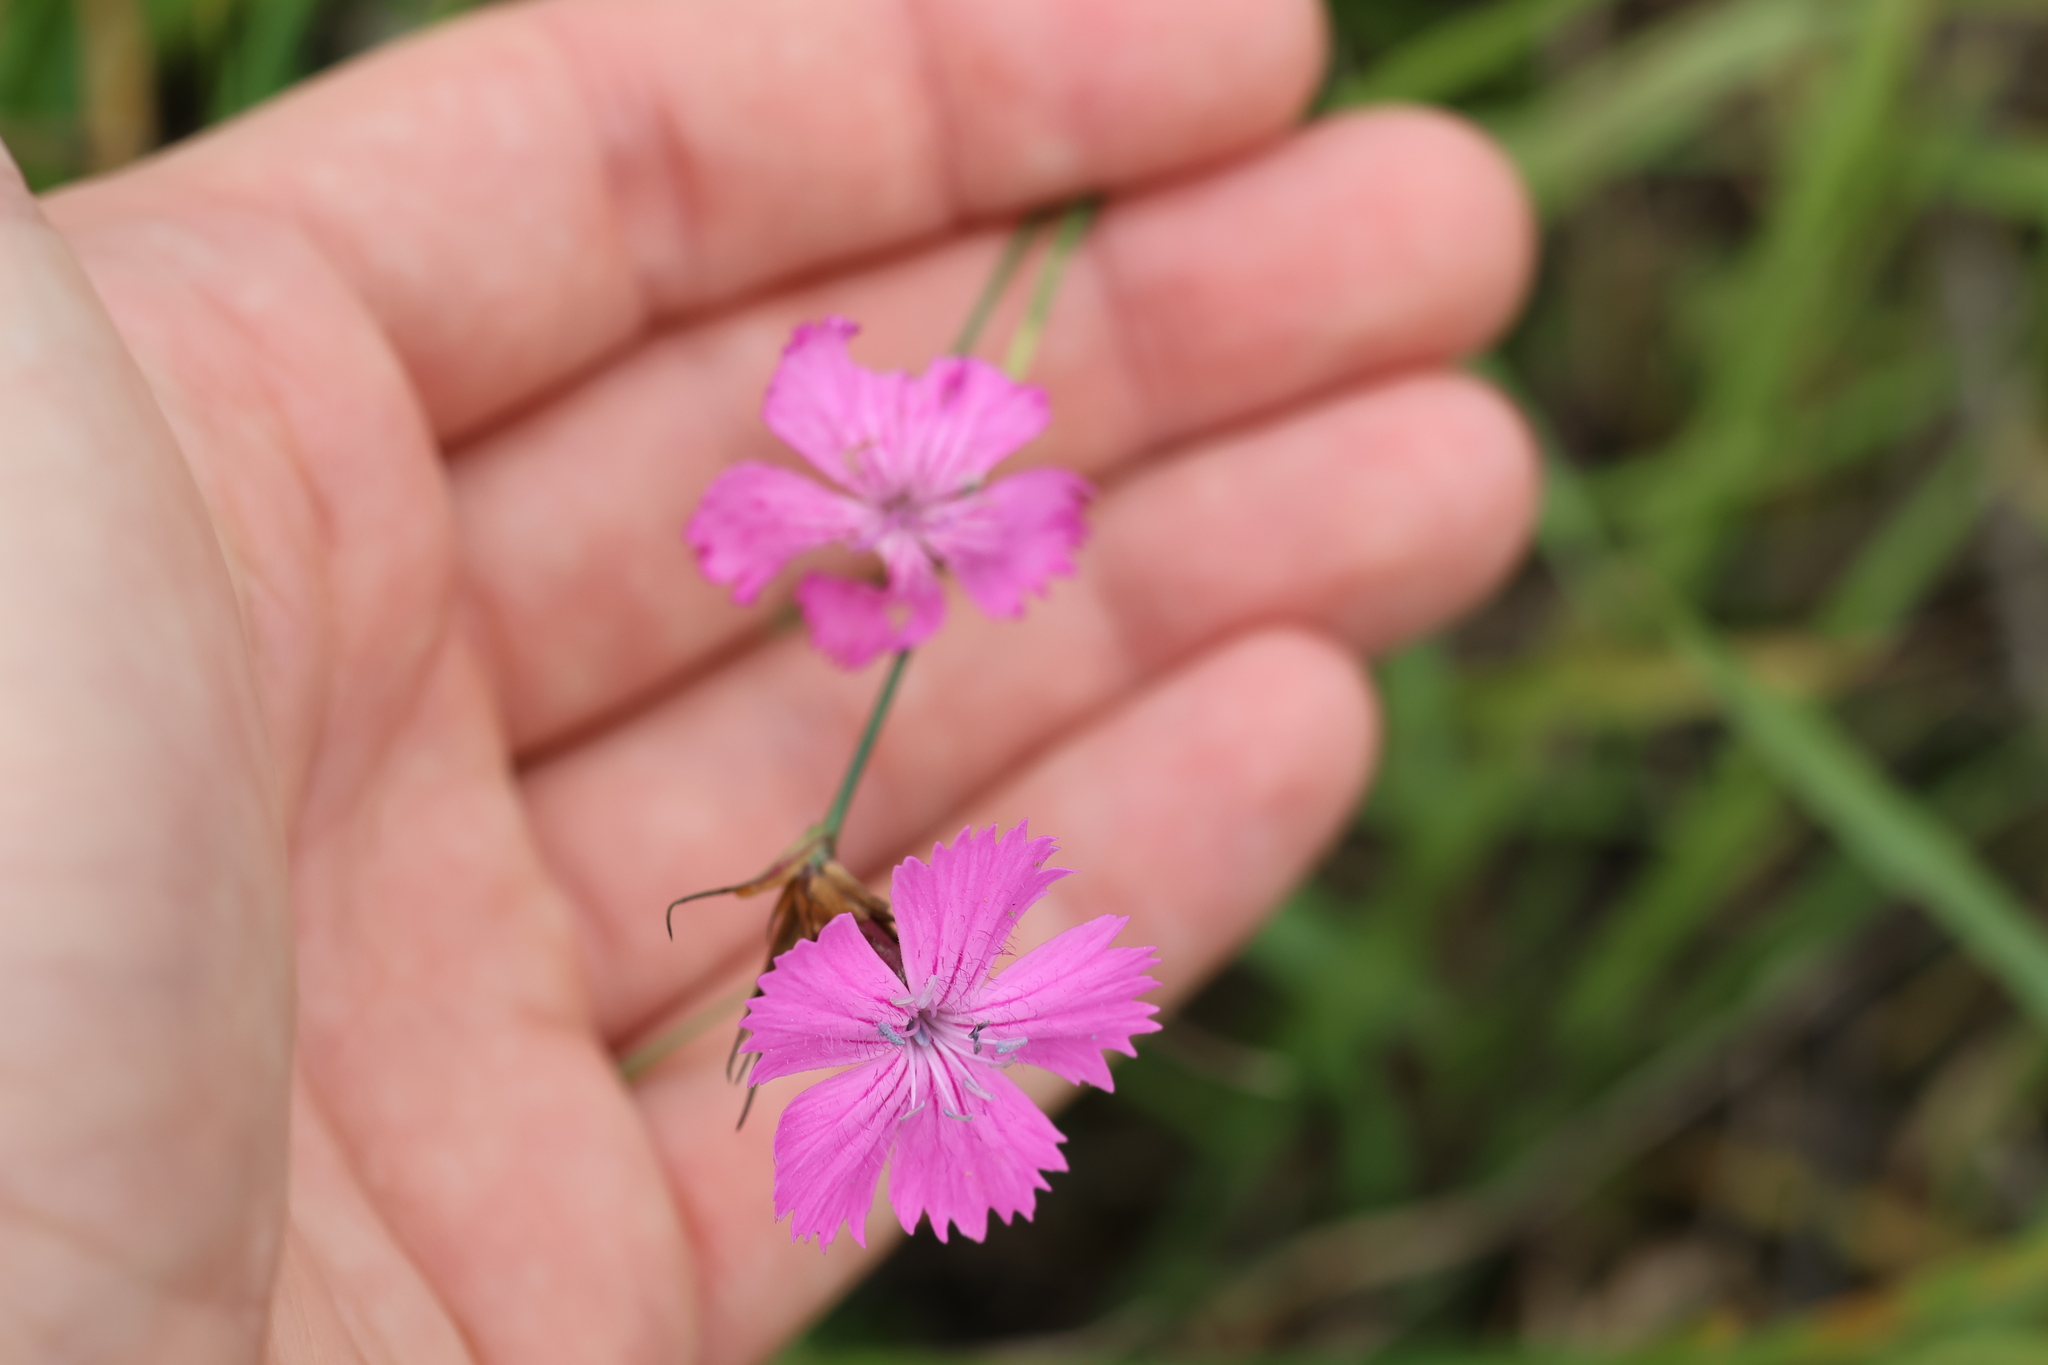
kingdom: Plantae
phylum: Tracheophyta
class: Magnoliopsida
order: Caryophyllales
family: Caryophyllaceae
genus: Dianthus
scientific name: Dianthus carthusianorum
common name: Carthusian pink
